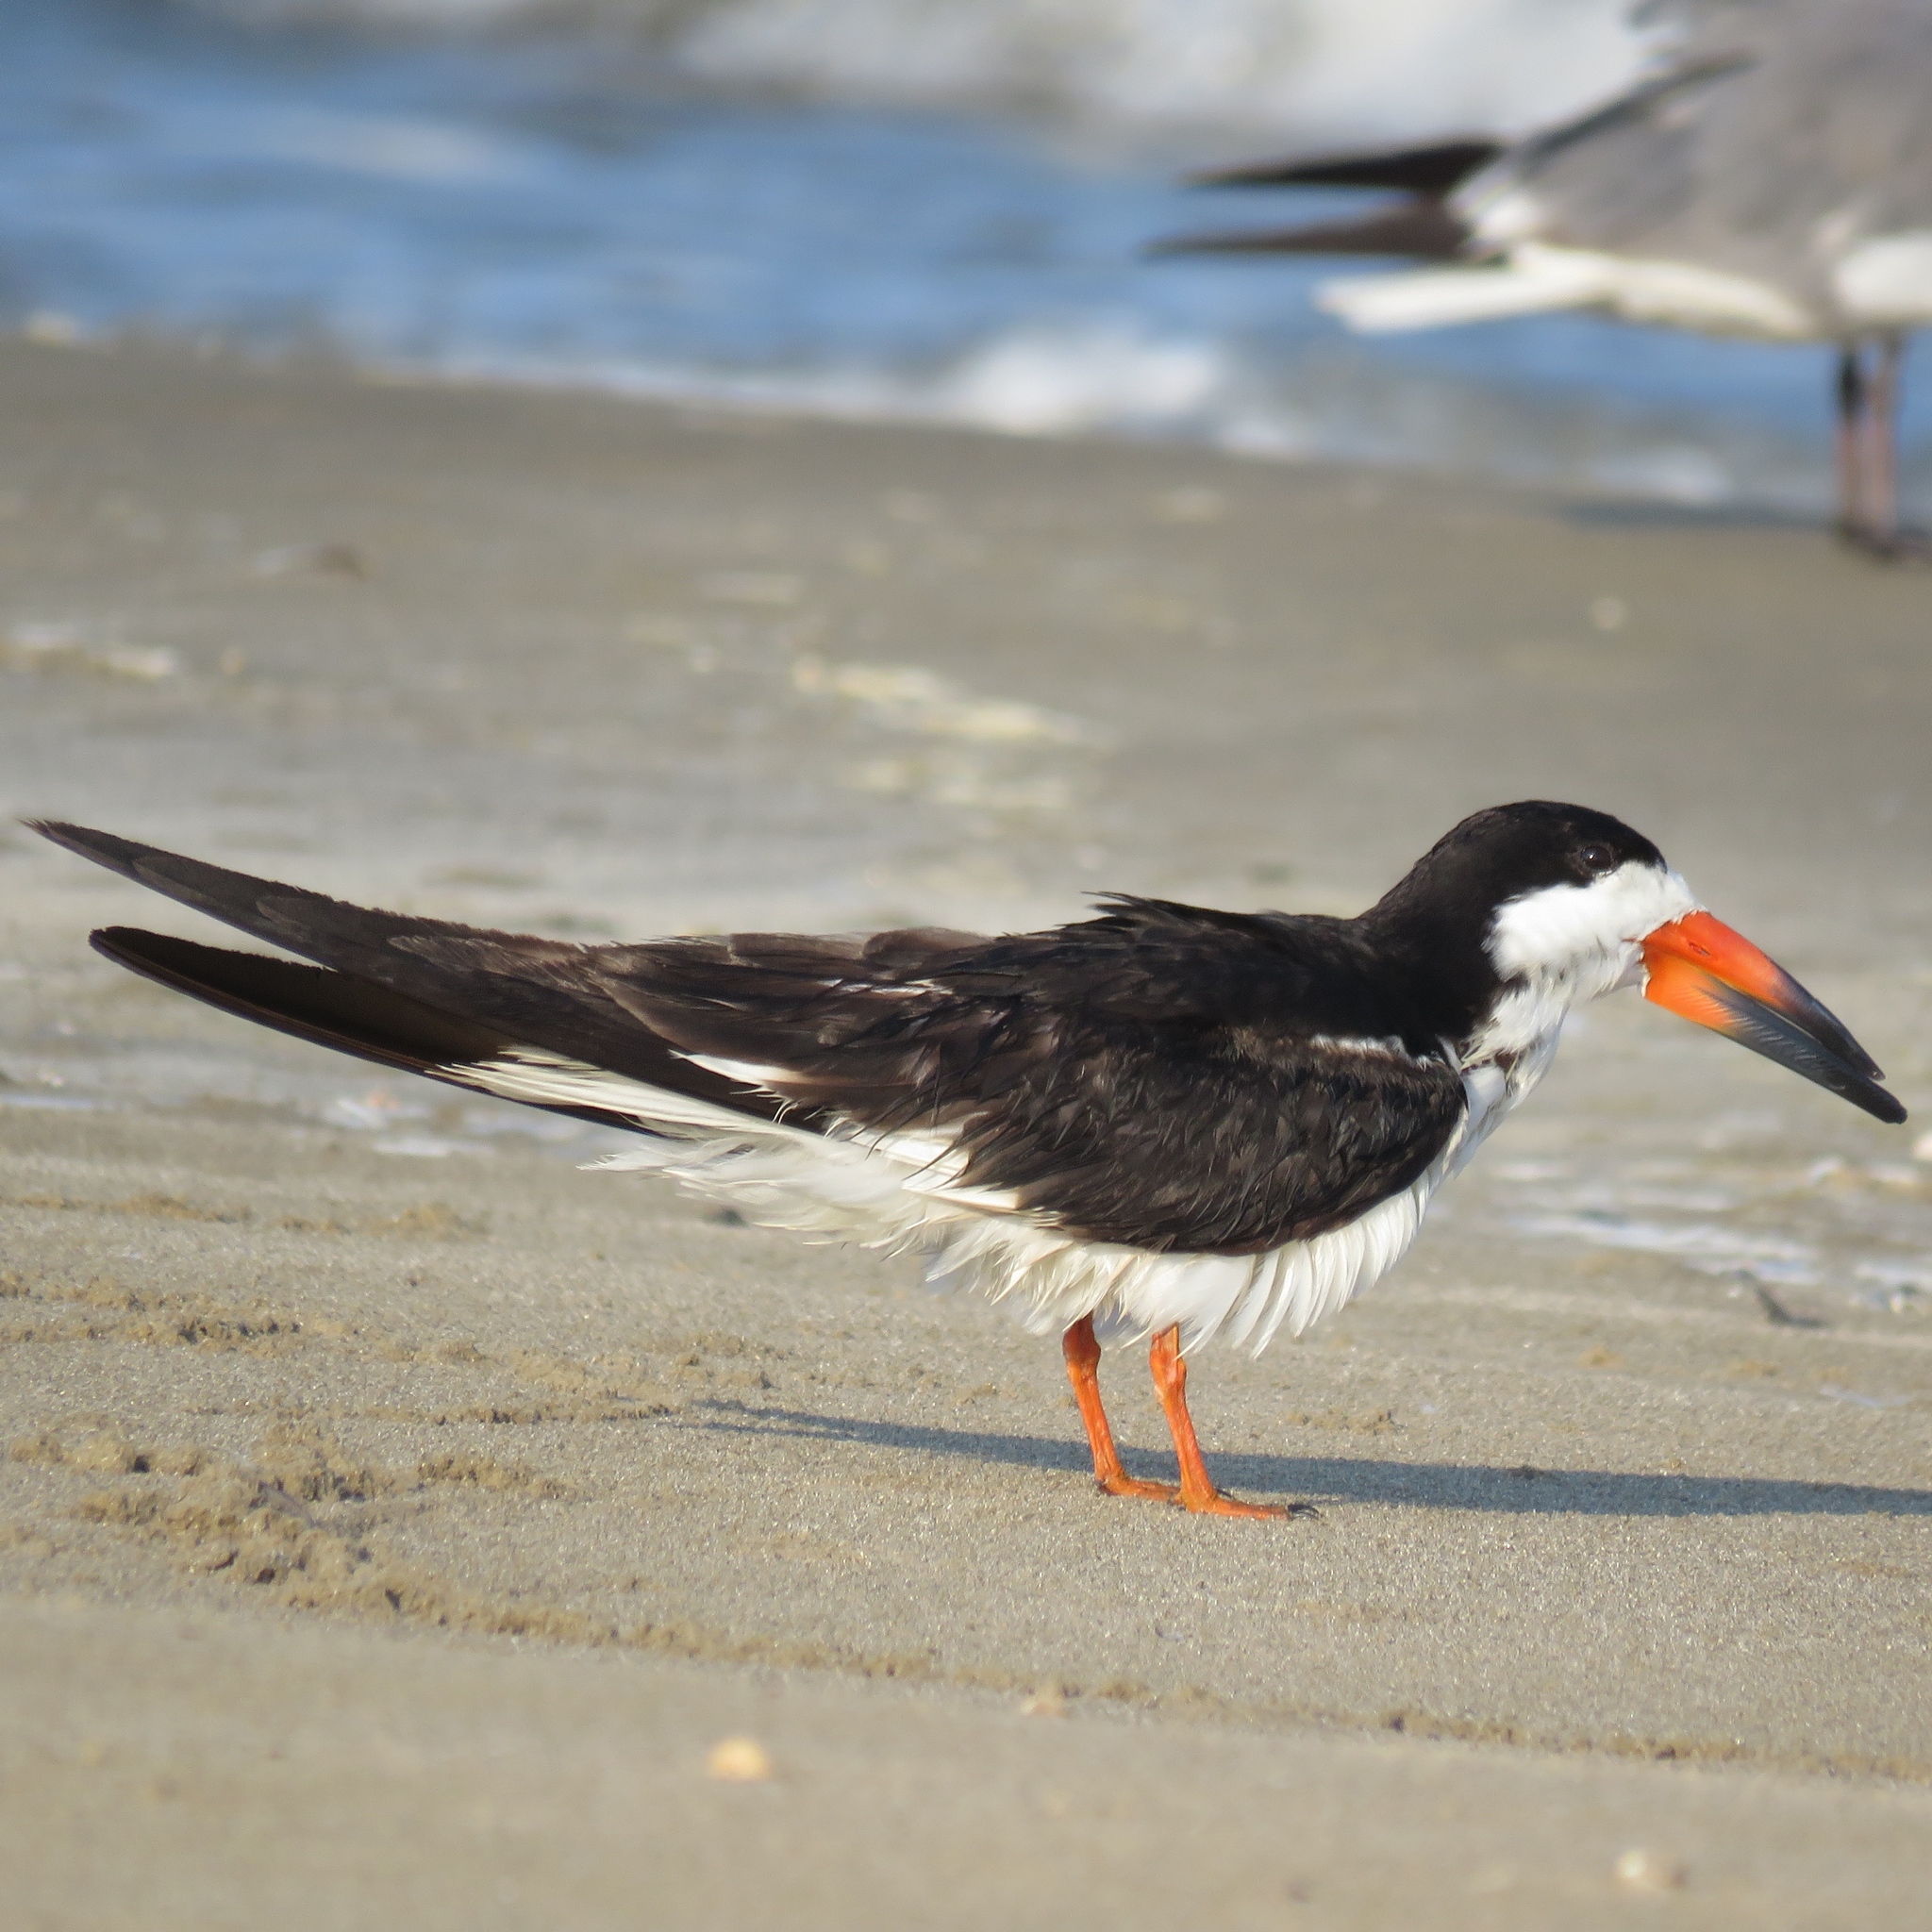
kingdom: Animalia
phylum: Chordata
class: Aves
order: Charadriiformes
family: Laridae
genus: Rynchops
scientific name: Rynchops niger
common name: Black skimmer
